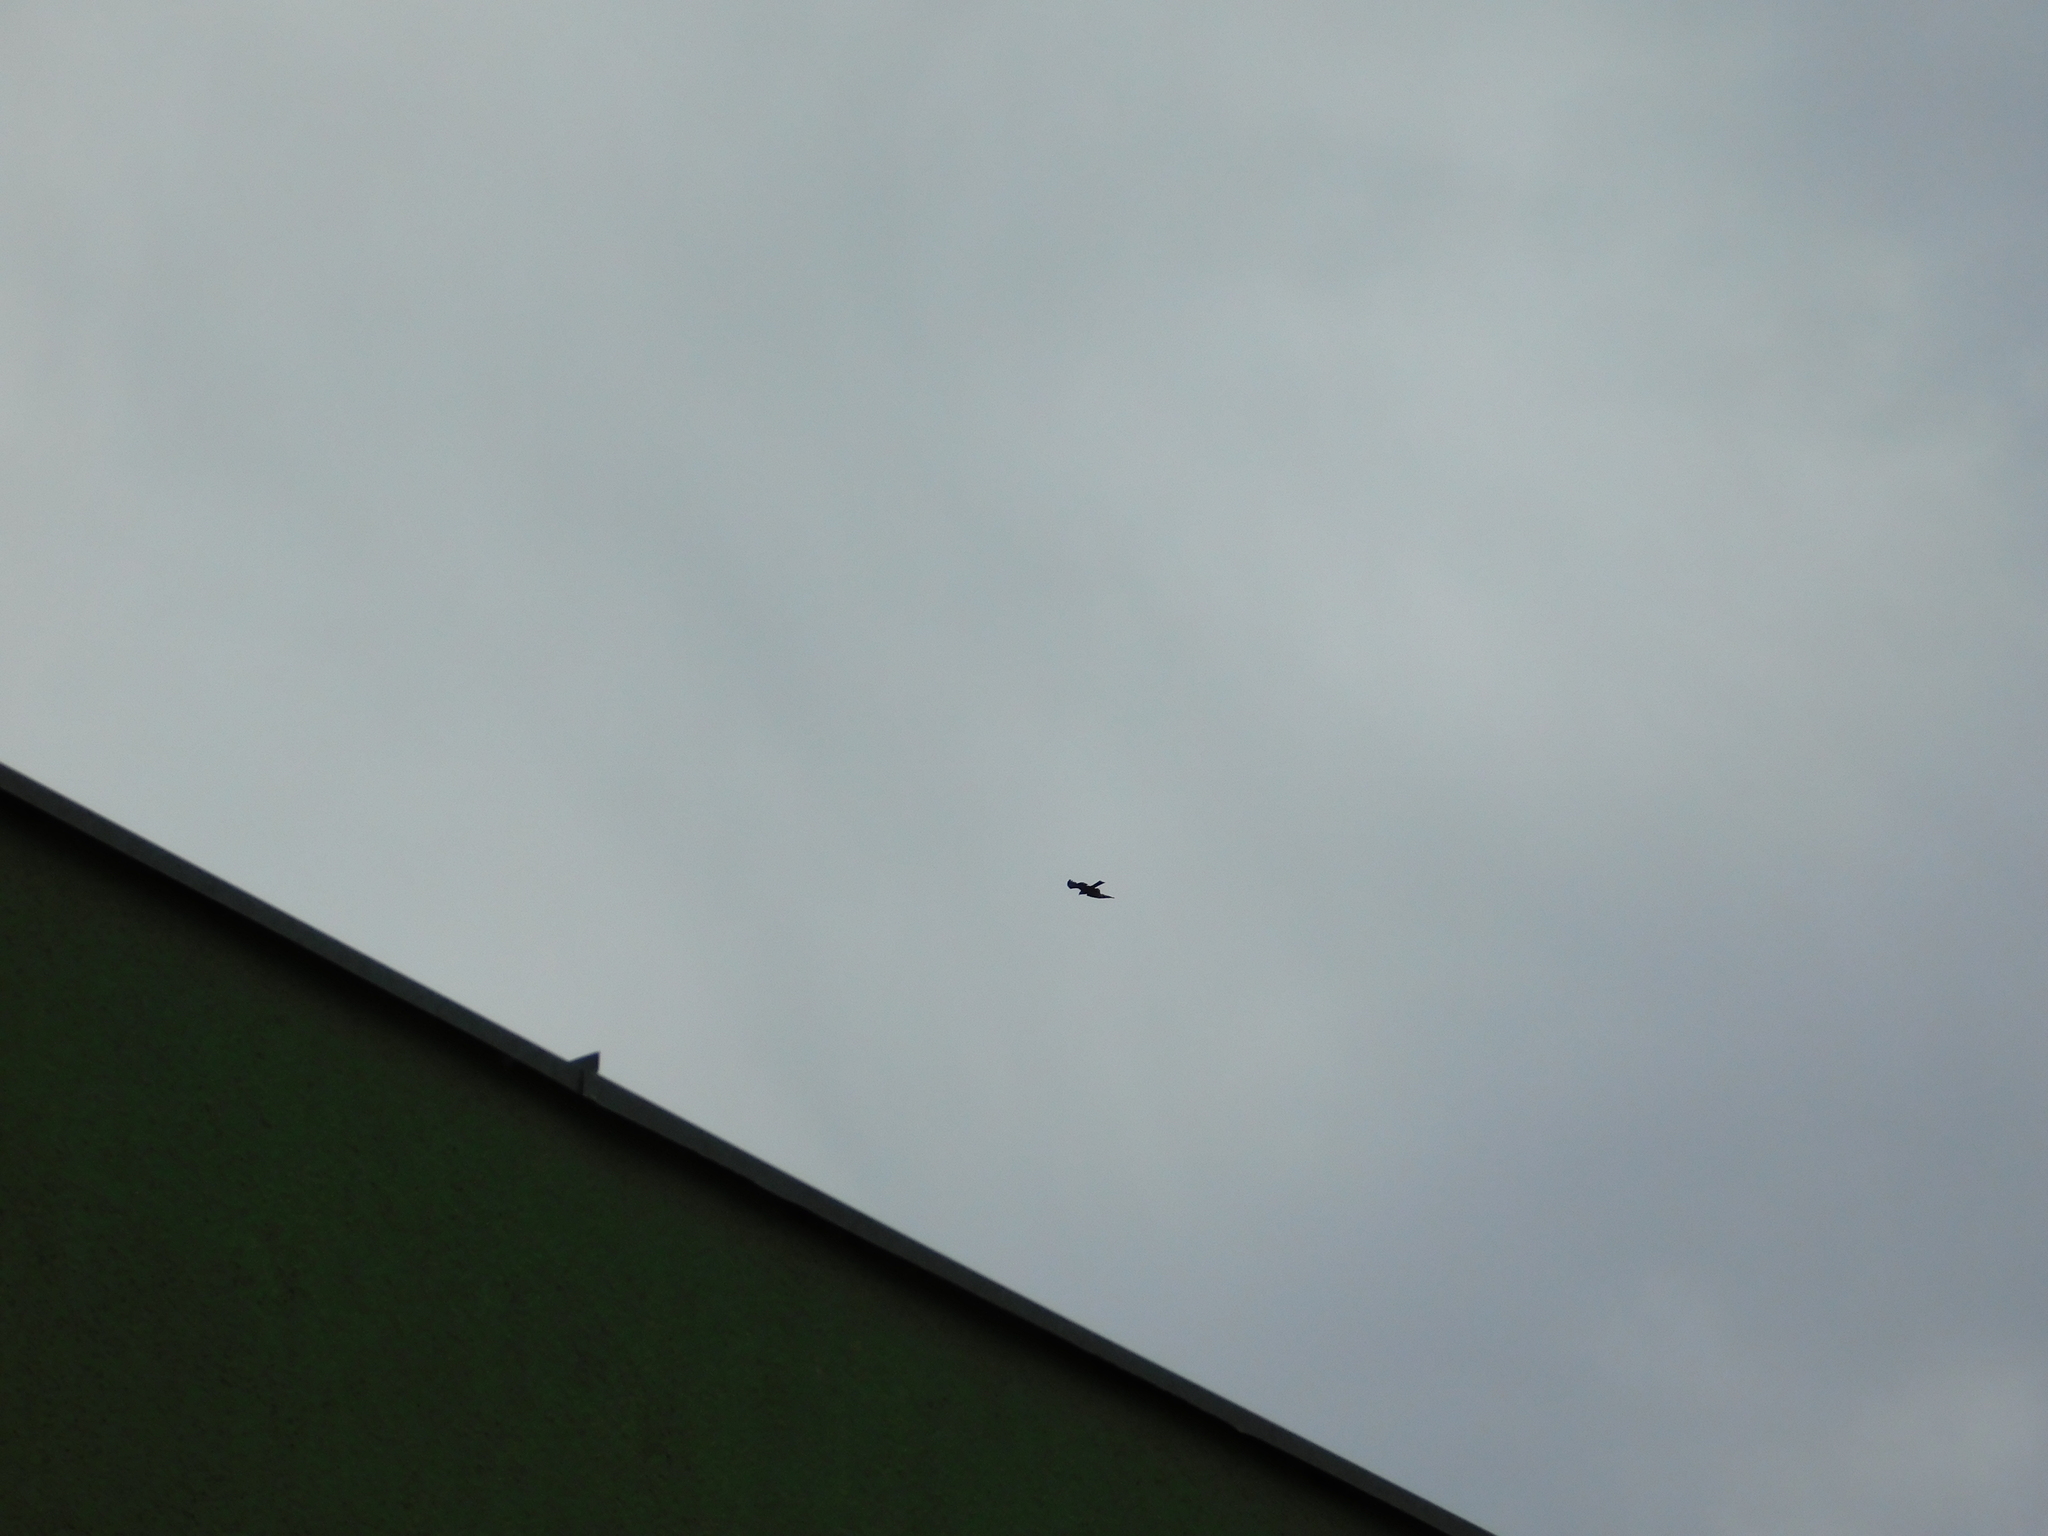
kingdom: Animalia
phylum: Chordata
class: Aves
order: Accipitriformes
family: Accipitridae
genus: Milvus
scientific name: Milvus migrans
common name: Black kite
